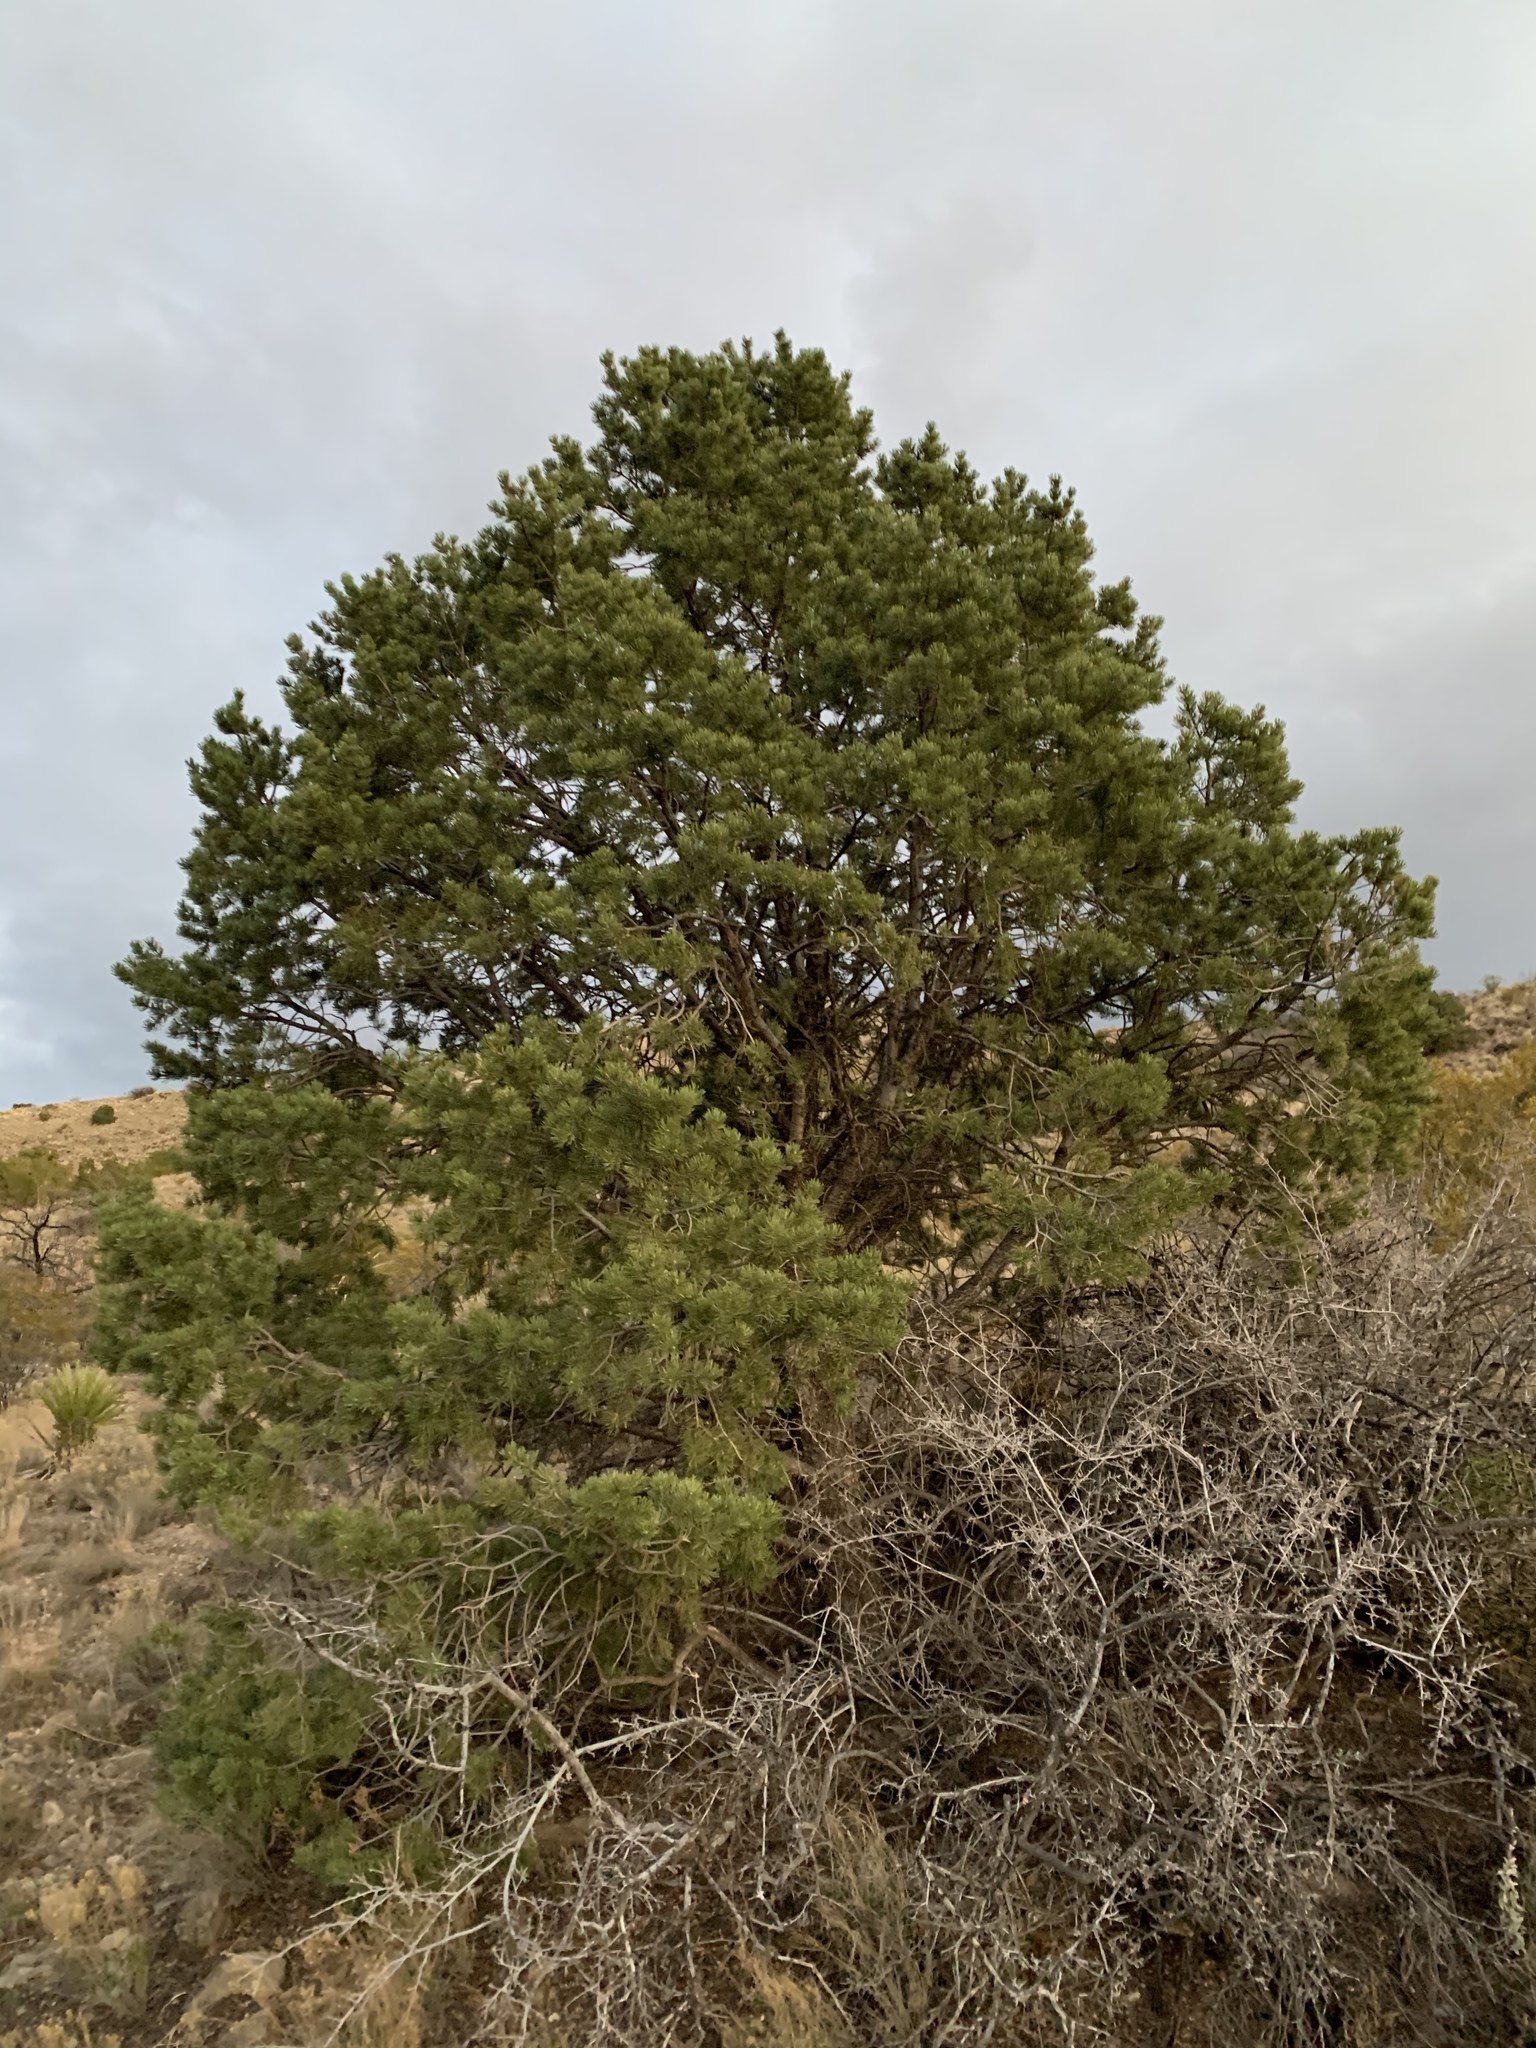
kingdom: Plantae
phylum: Tracheophyta
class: Pinopsida
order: Pinales
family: Pinaceae
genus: Pinus
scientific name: Pinus edulis
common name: Colorado pinyon
